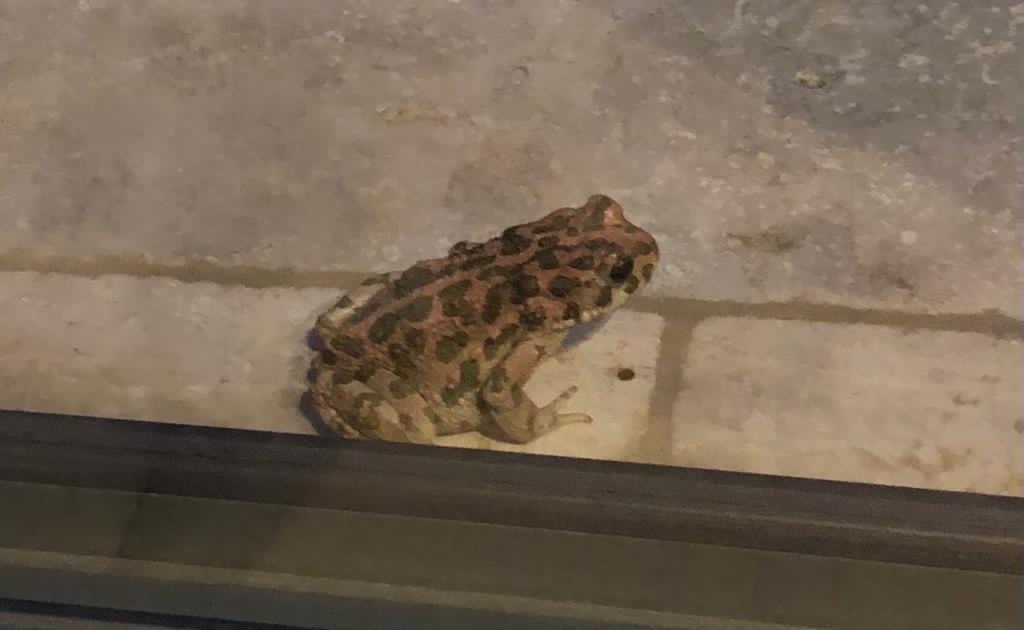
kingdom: Animalia
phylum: Chordata
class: Amphibia
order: Anura
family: Bufonidae
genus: Bufotes
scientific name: Bufotes viridis
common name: European green toad
